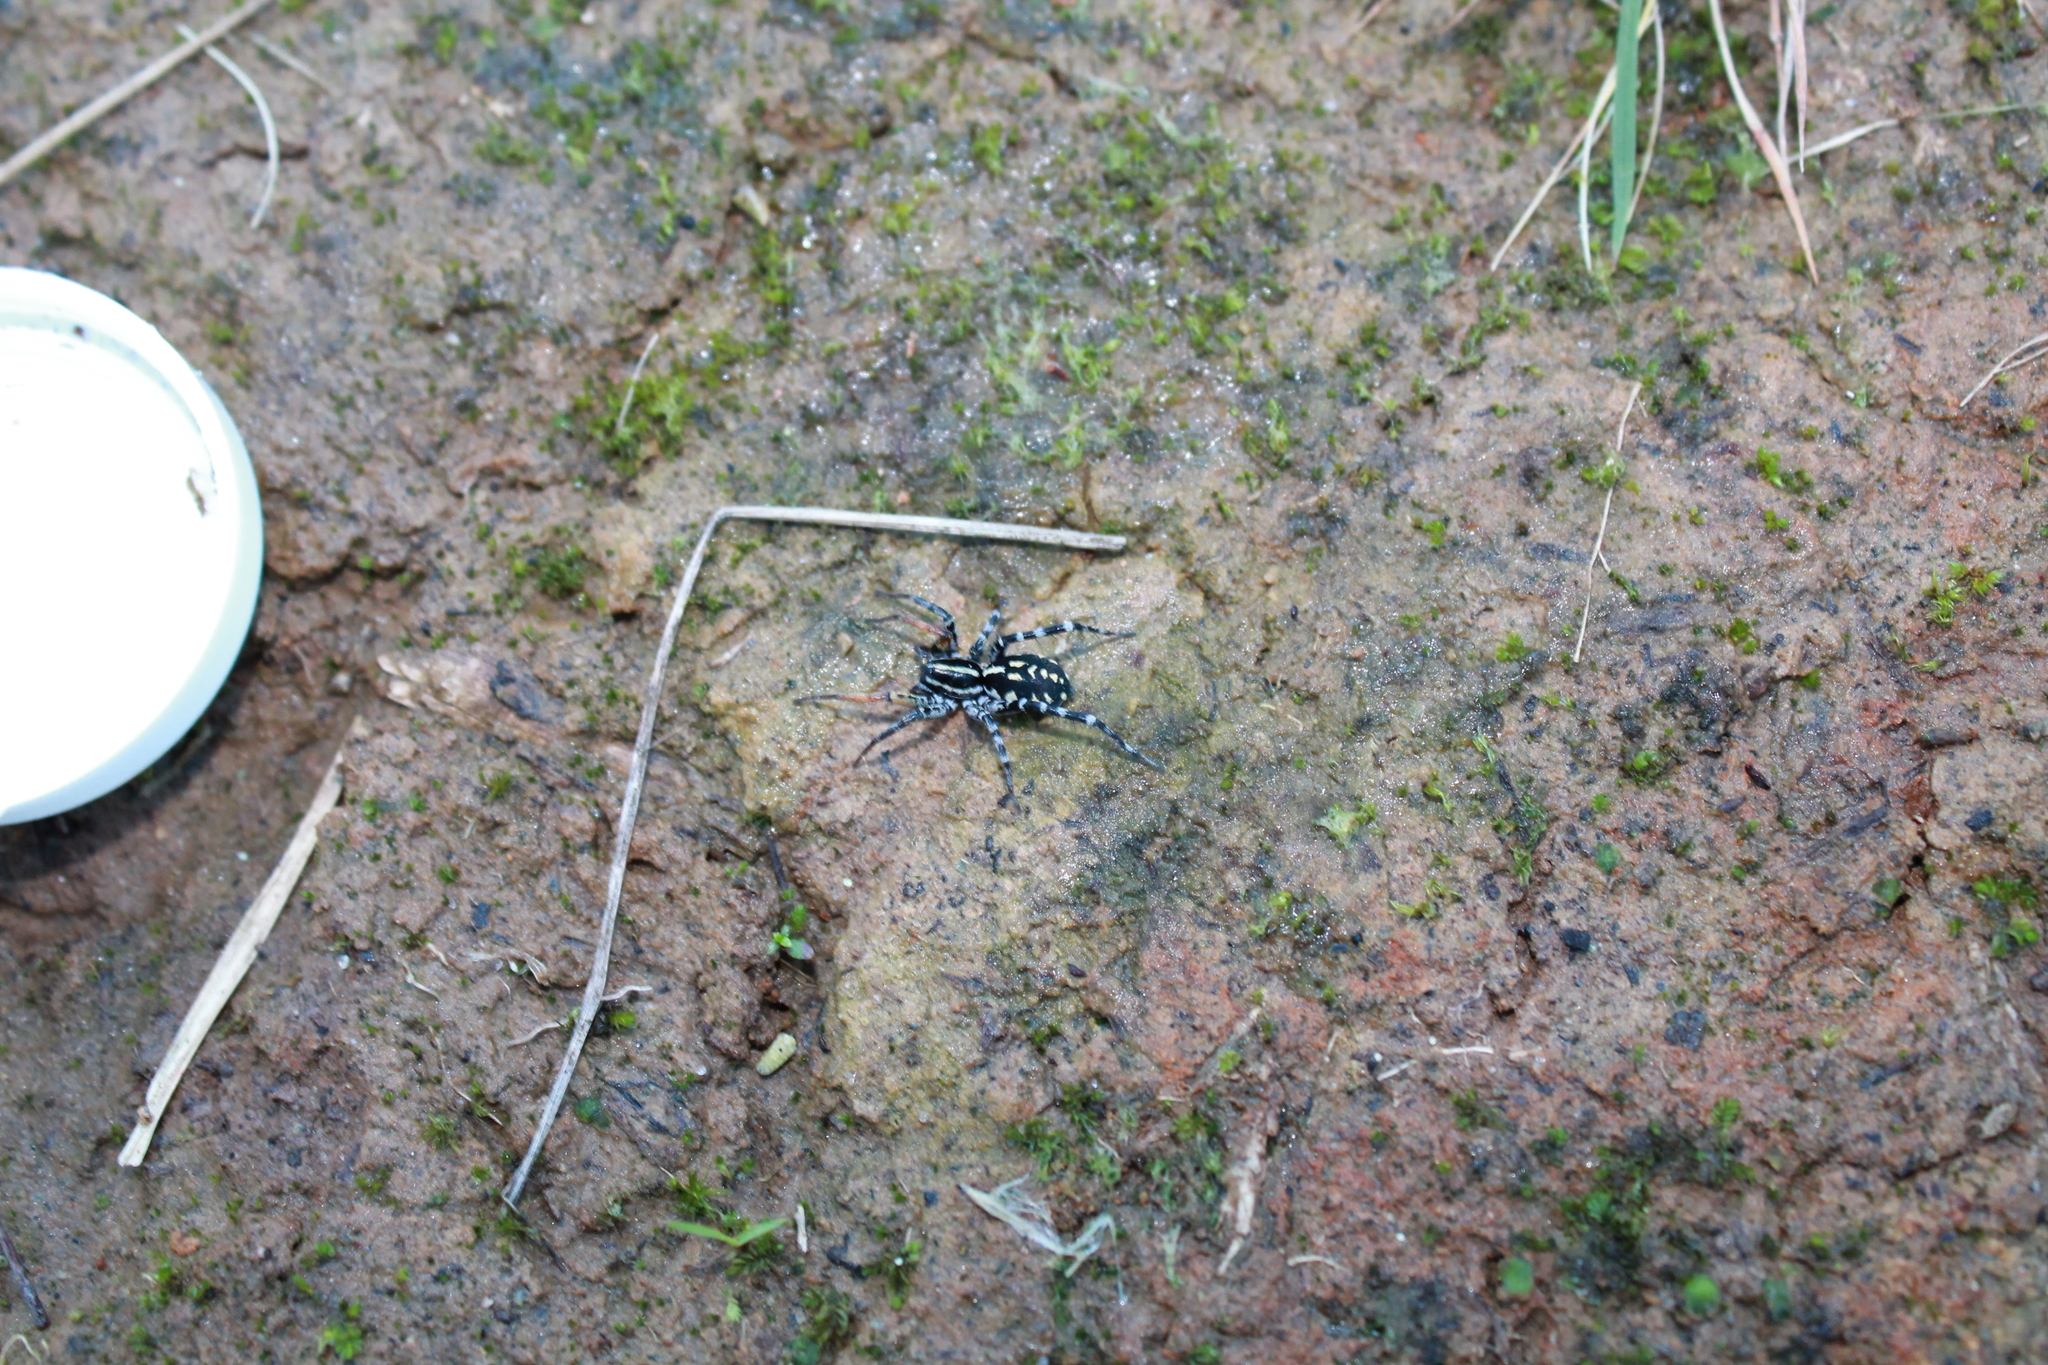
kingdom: Animalia
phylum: Arthropoda
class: Arachnida
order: Araneae
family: Corinnidae
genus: Nyssus
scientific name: Nyssus coloripes
